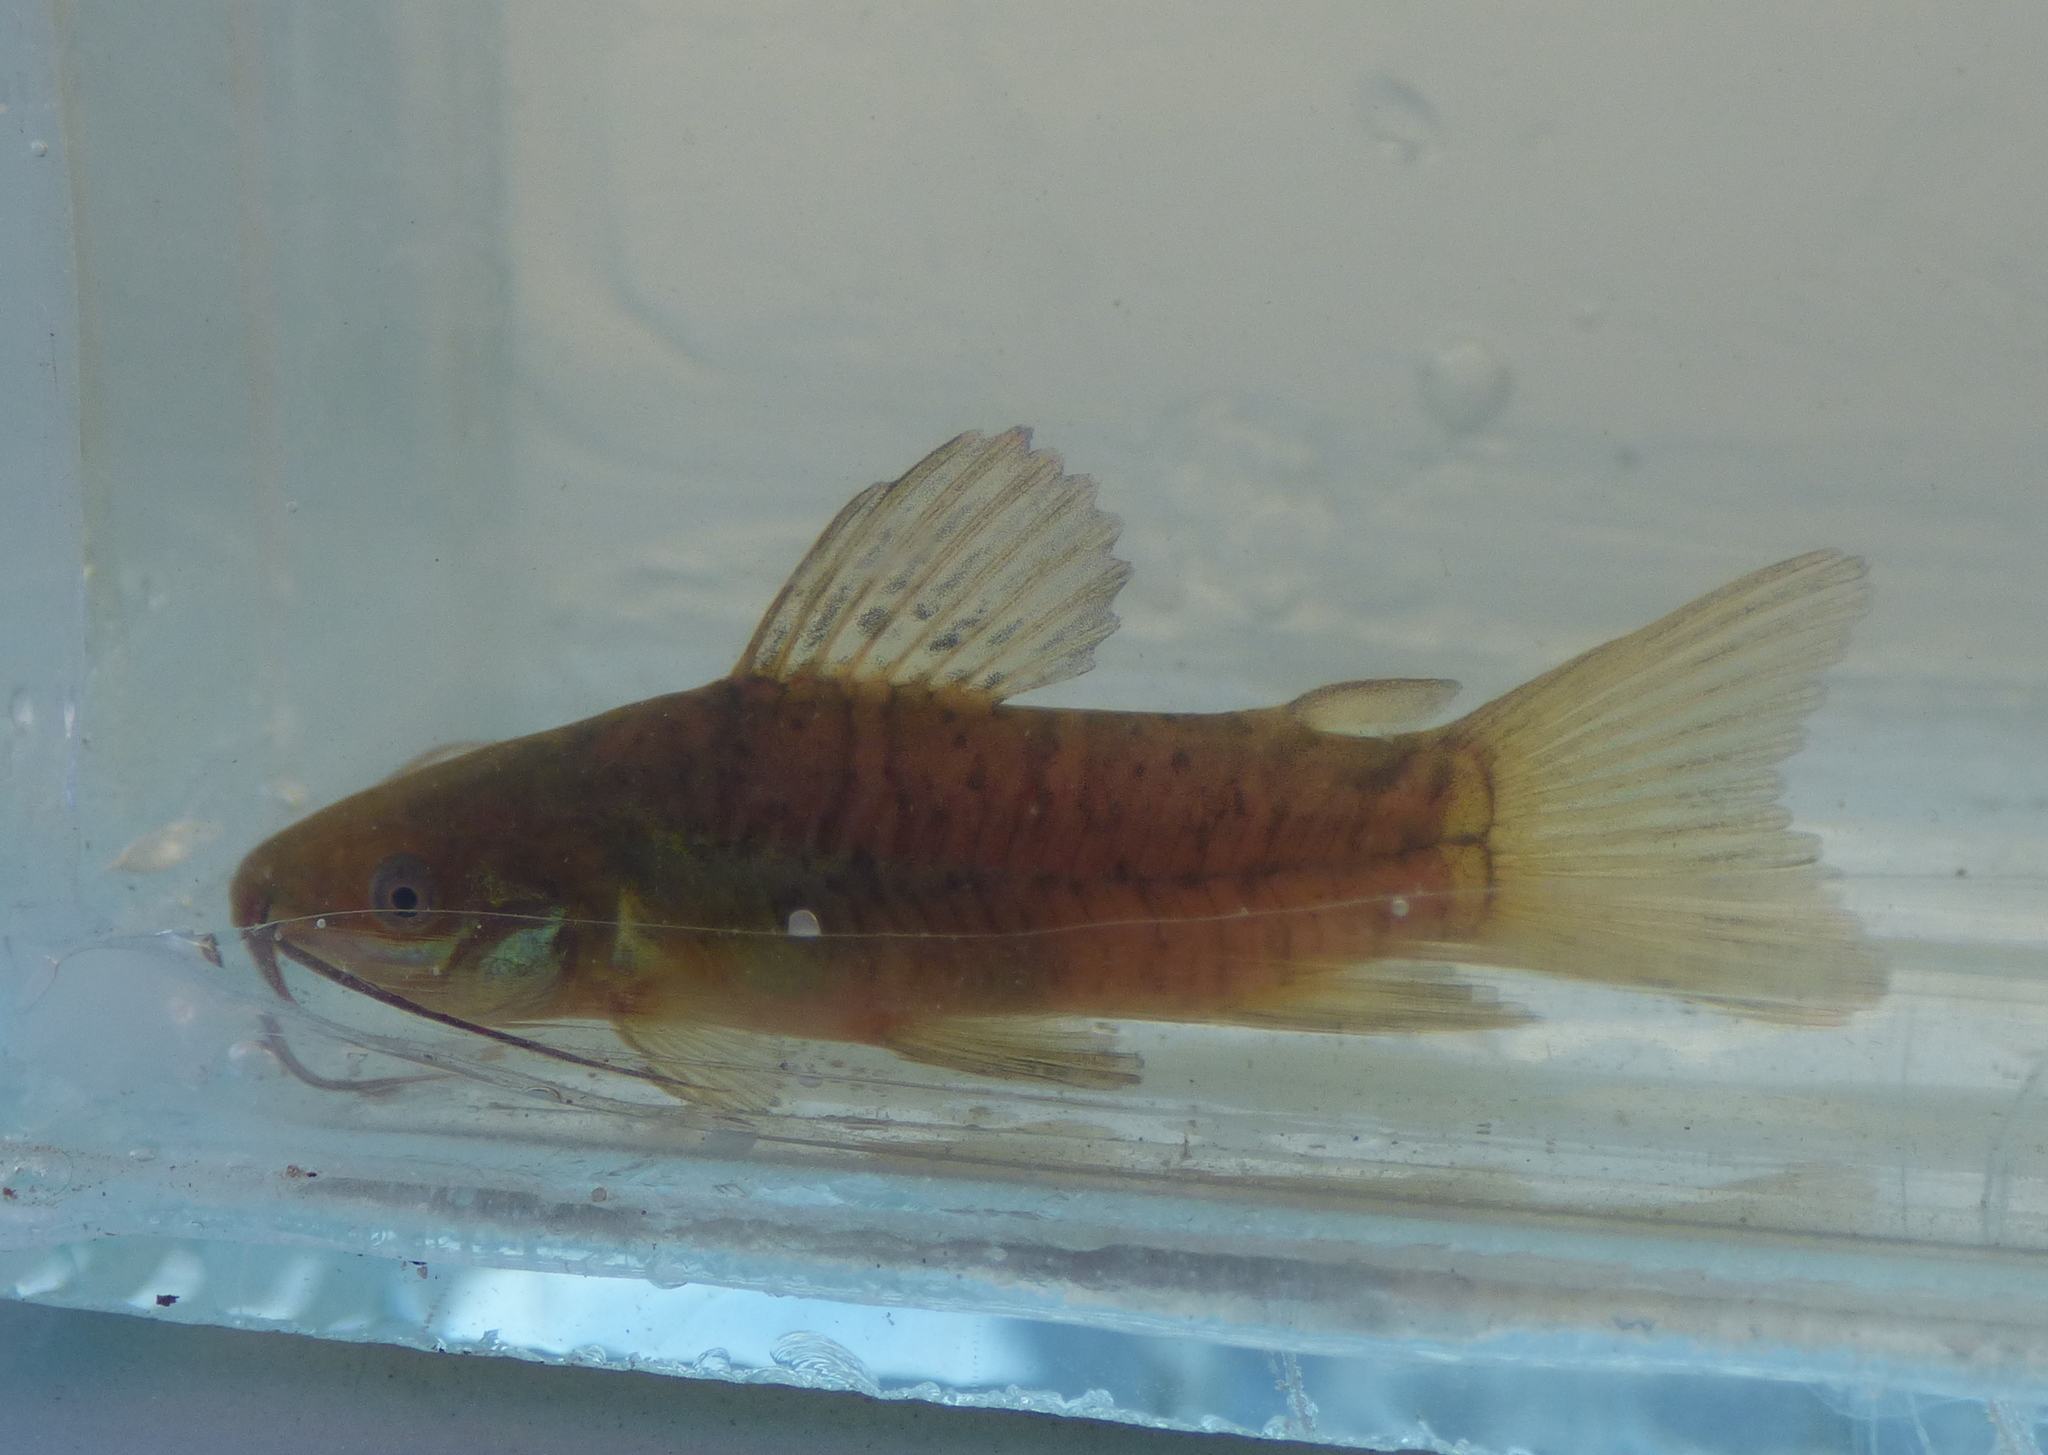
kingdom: Animalia
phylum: Chordata
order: Siluriformes
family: Callichthyidae
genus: Hoplosternum
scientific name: Hoplosternum littorale
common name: Brown hoplo
